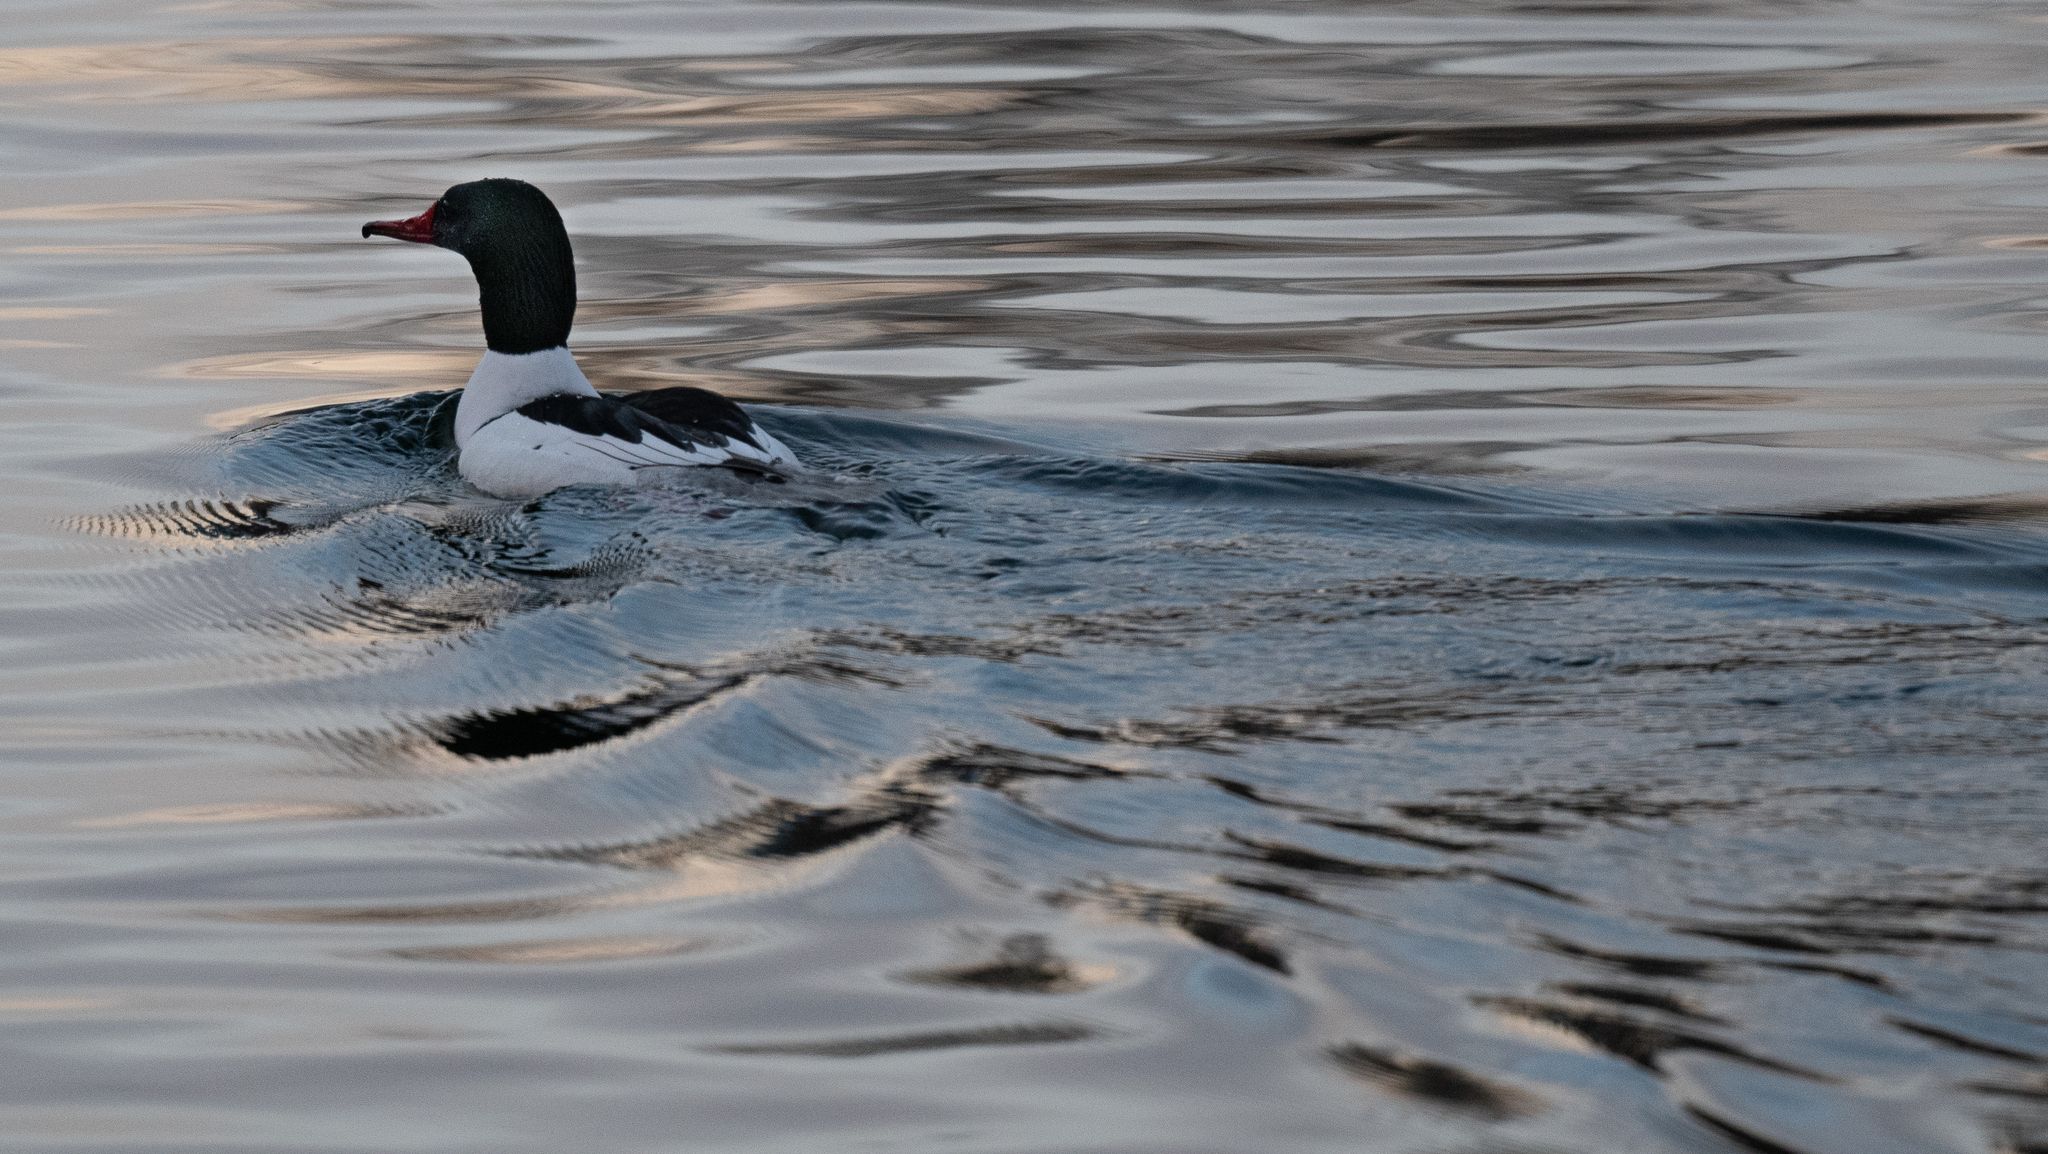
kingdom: Animalia
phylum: Chordata
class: Aves
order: Anseriformes
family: Anatidae
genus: Mergus
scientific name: Mergus merganser
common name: Common merganser
